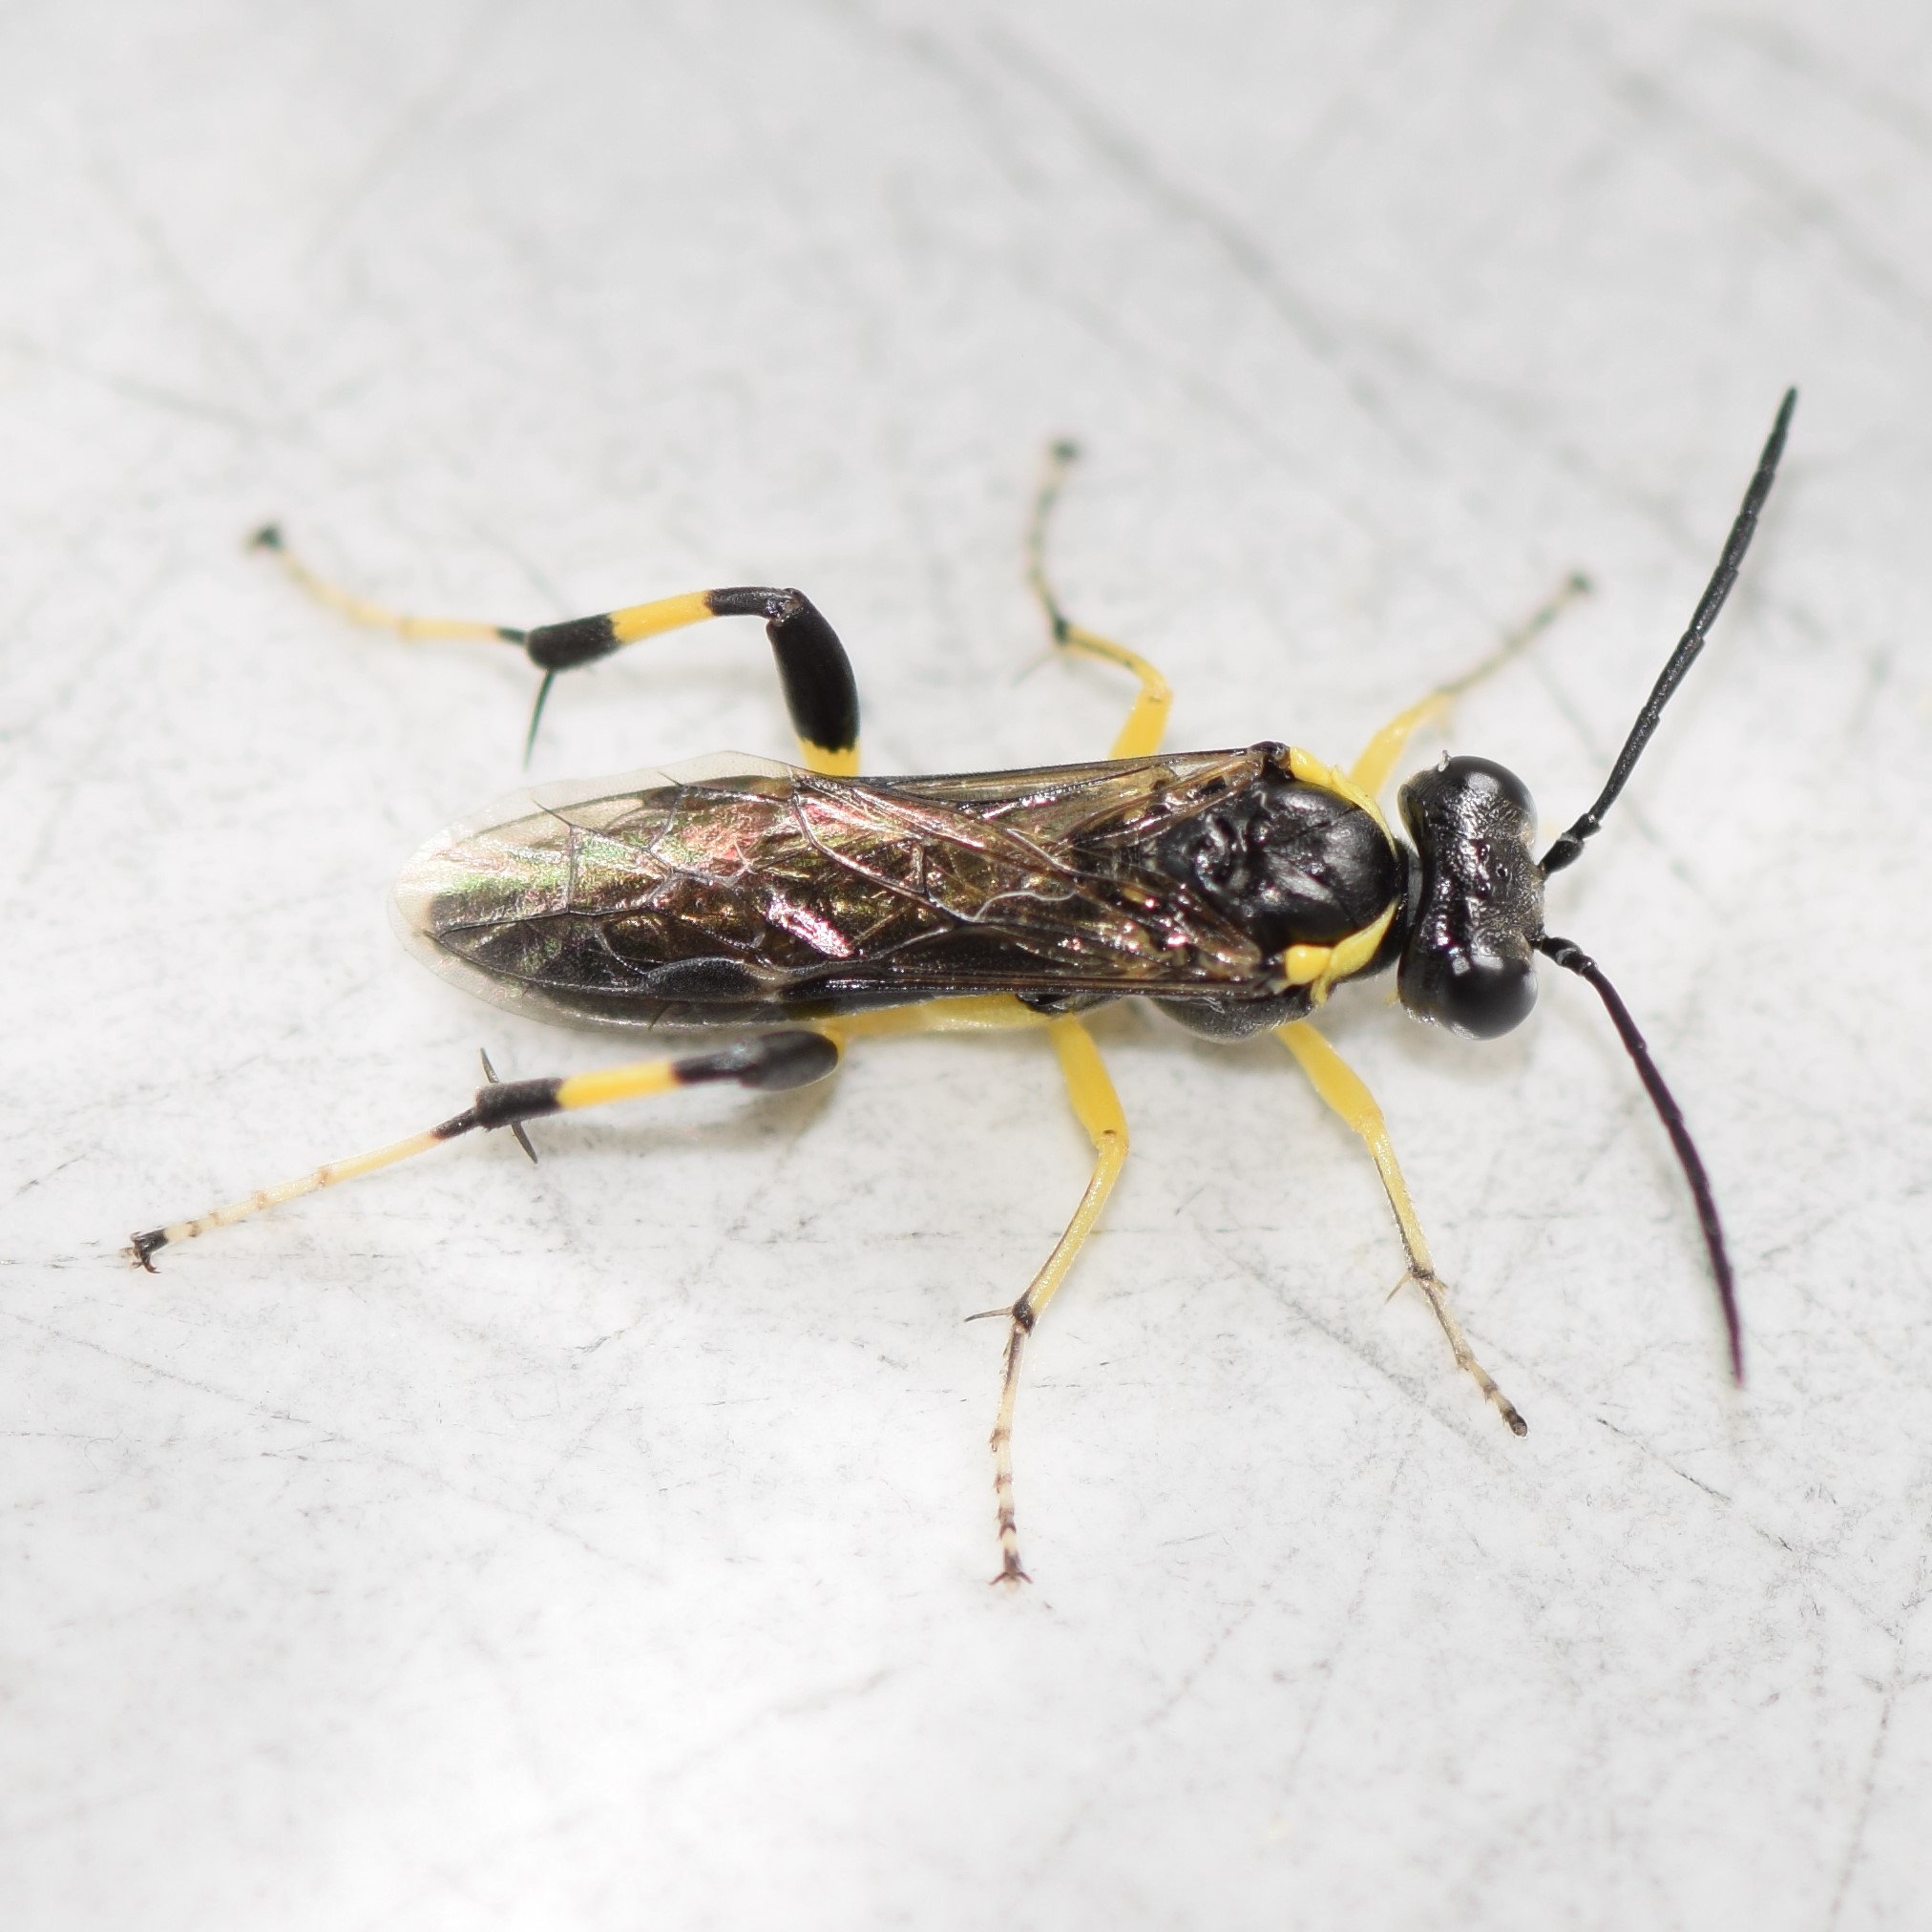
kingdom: Animalia
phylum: Arthropoda
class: Insecta
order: Hymenoptera
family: Tenthredinidae
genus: Macrophya
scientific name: Macrophya pulchella
